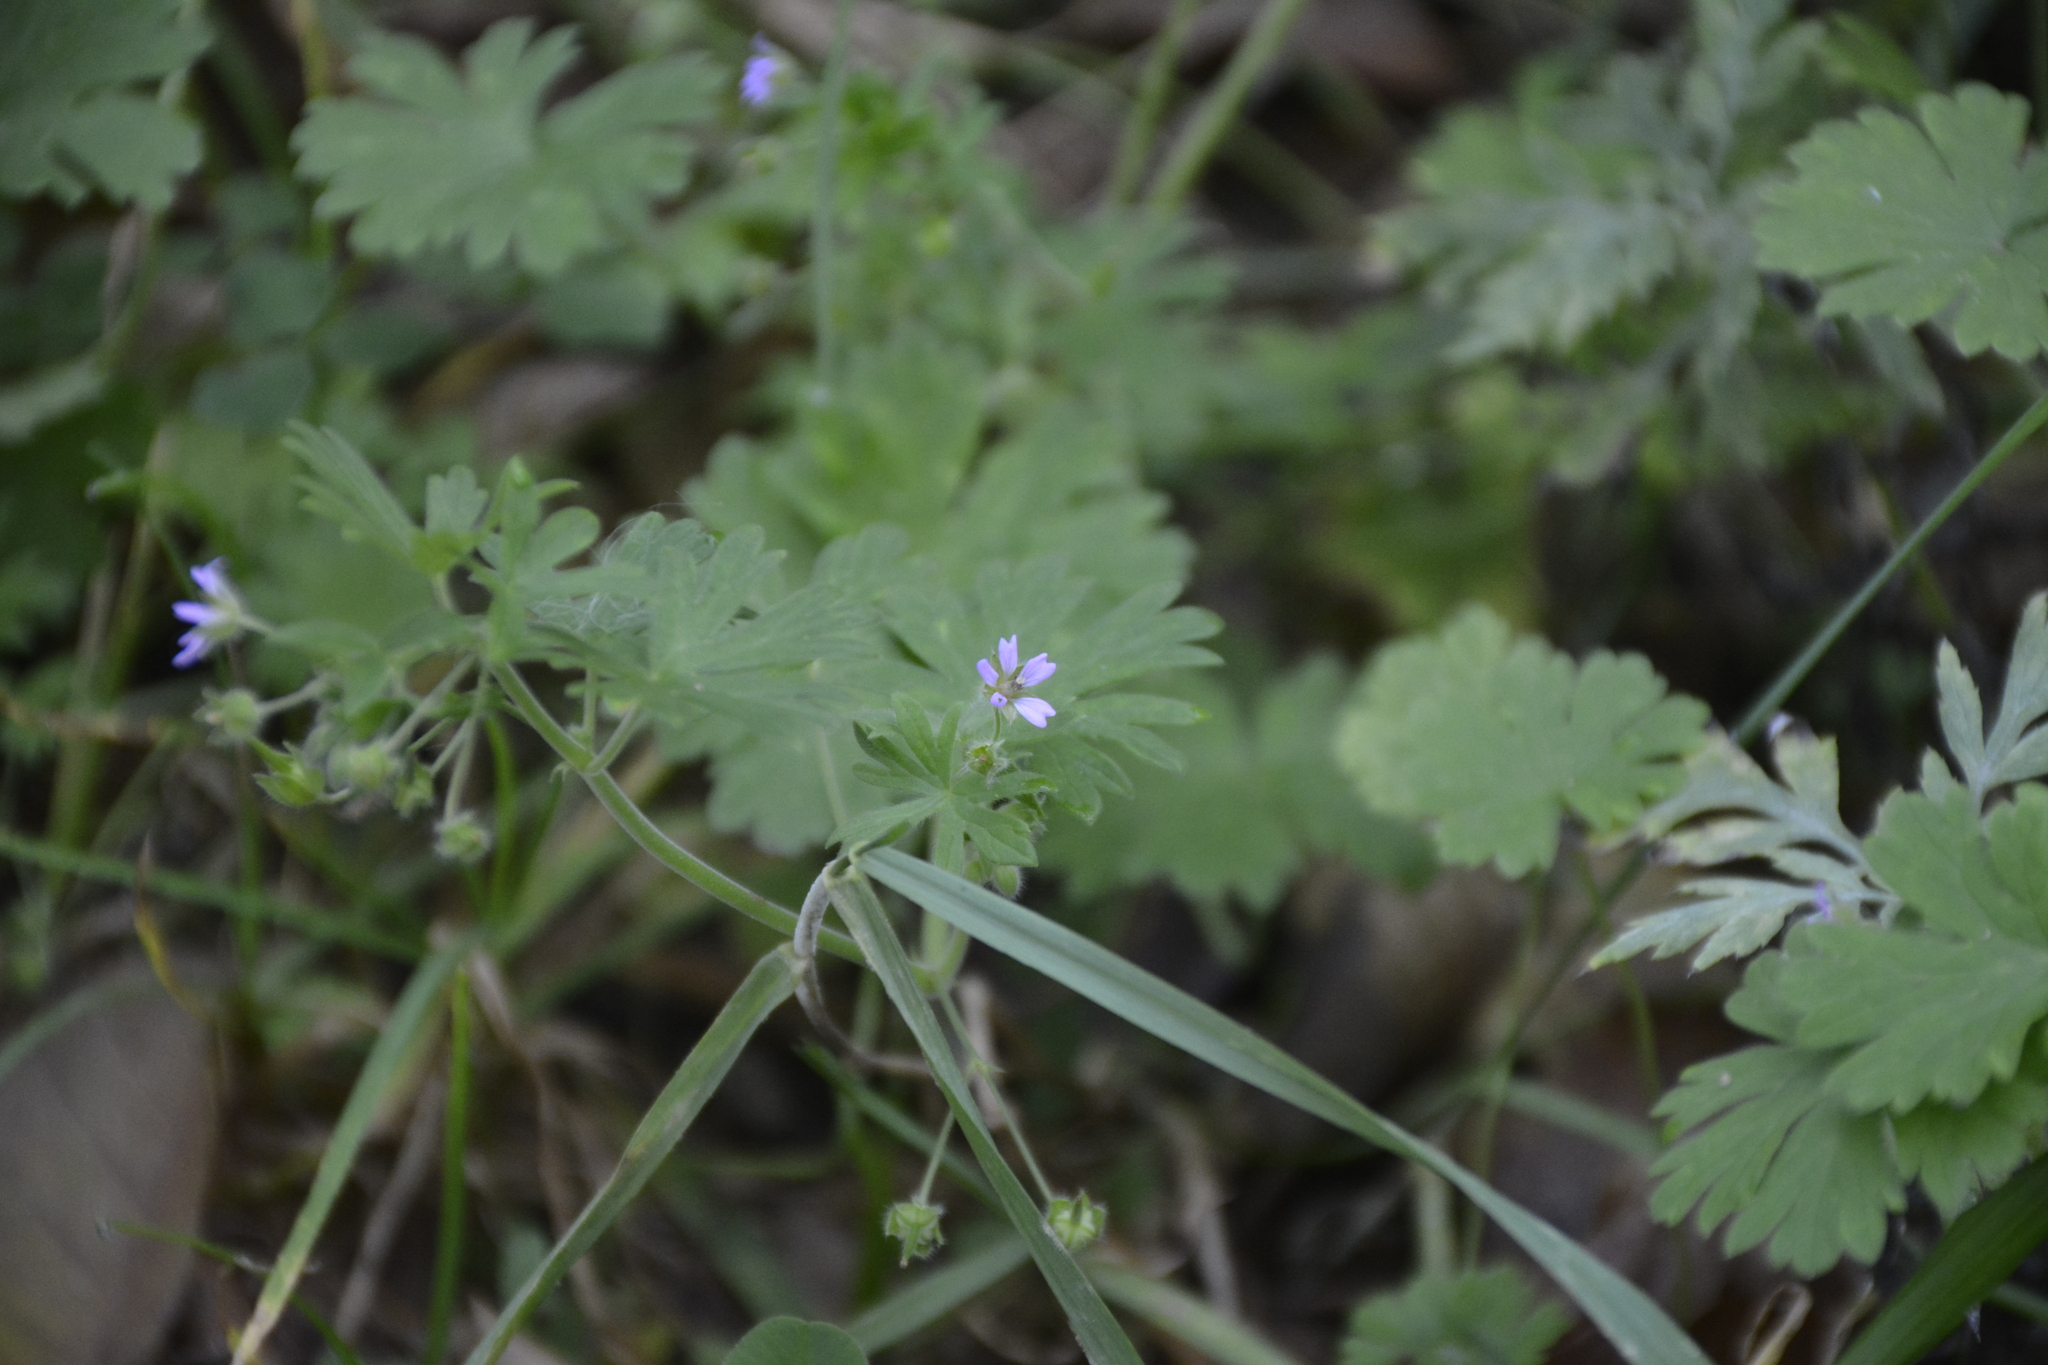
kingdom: Plantae
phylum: Tracheophyta
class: Magnoliopsida
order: Geraniales
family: Geraniaceae
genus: Geranium
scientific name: Geranium pusillum
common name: Small geranium
